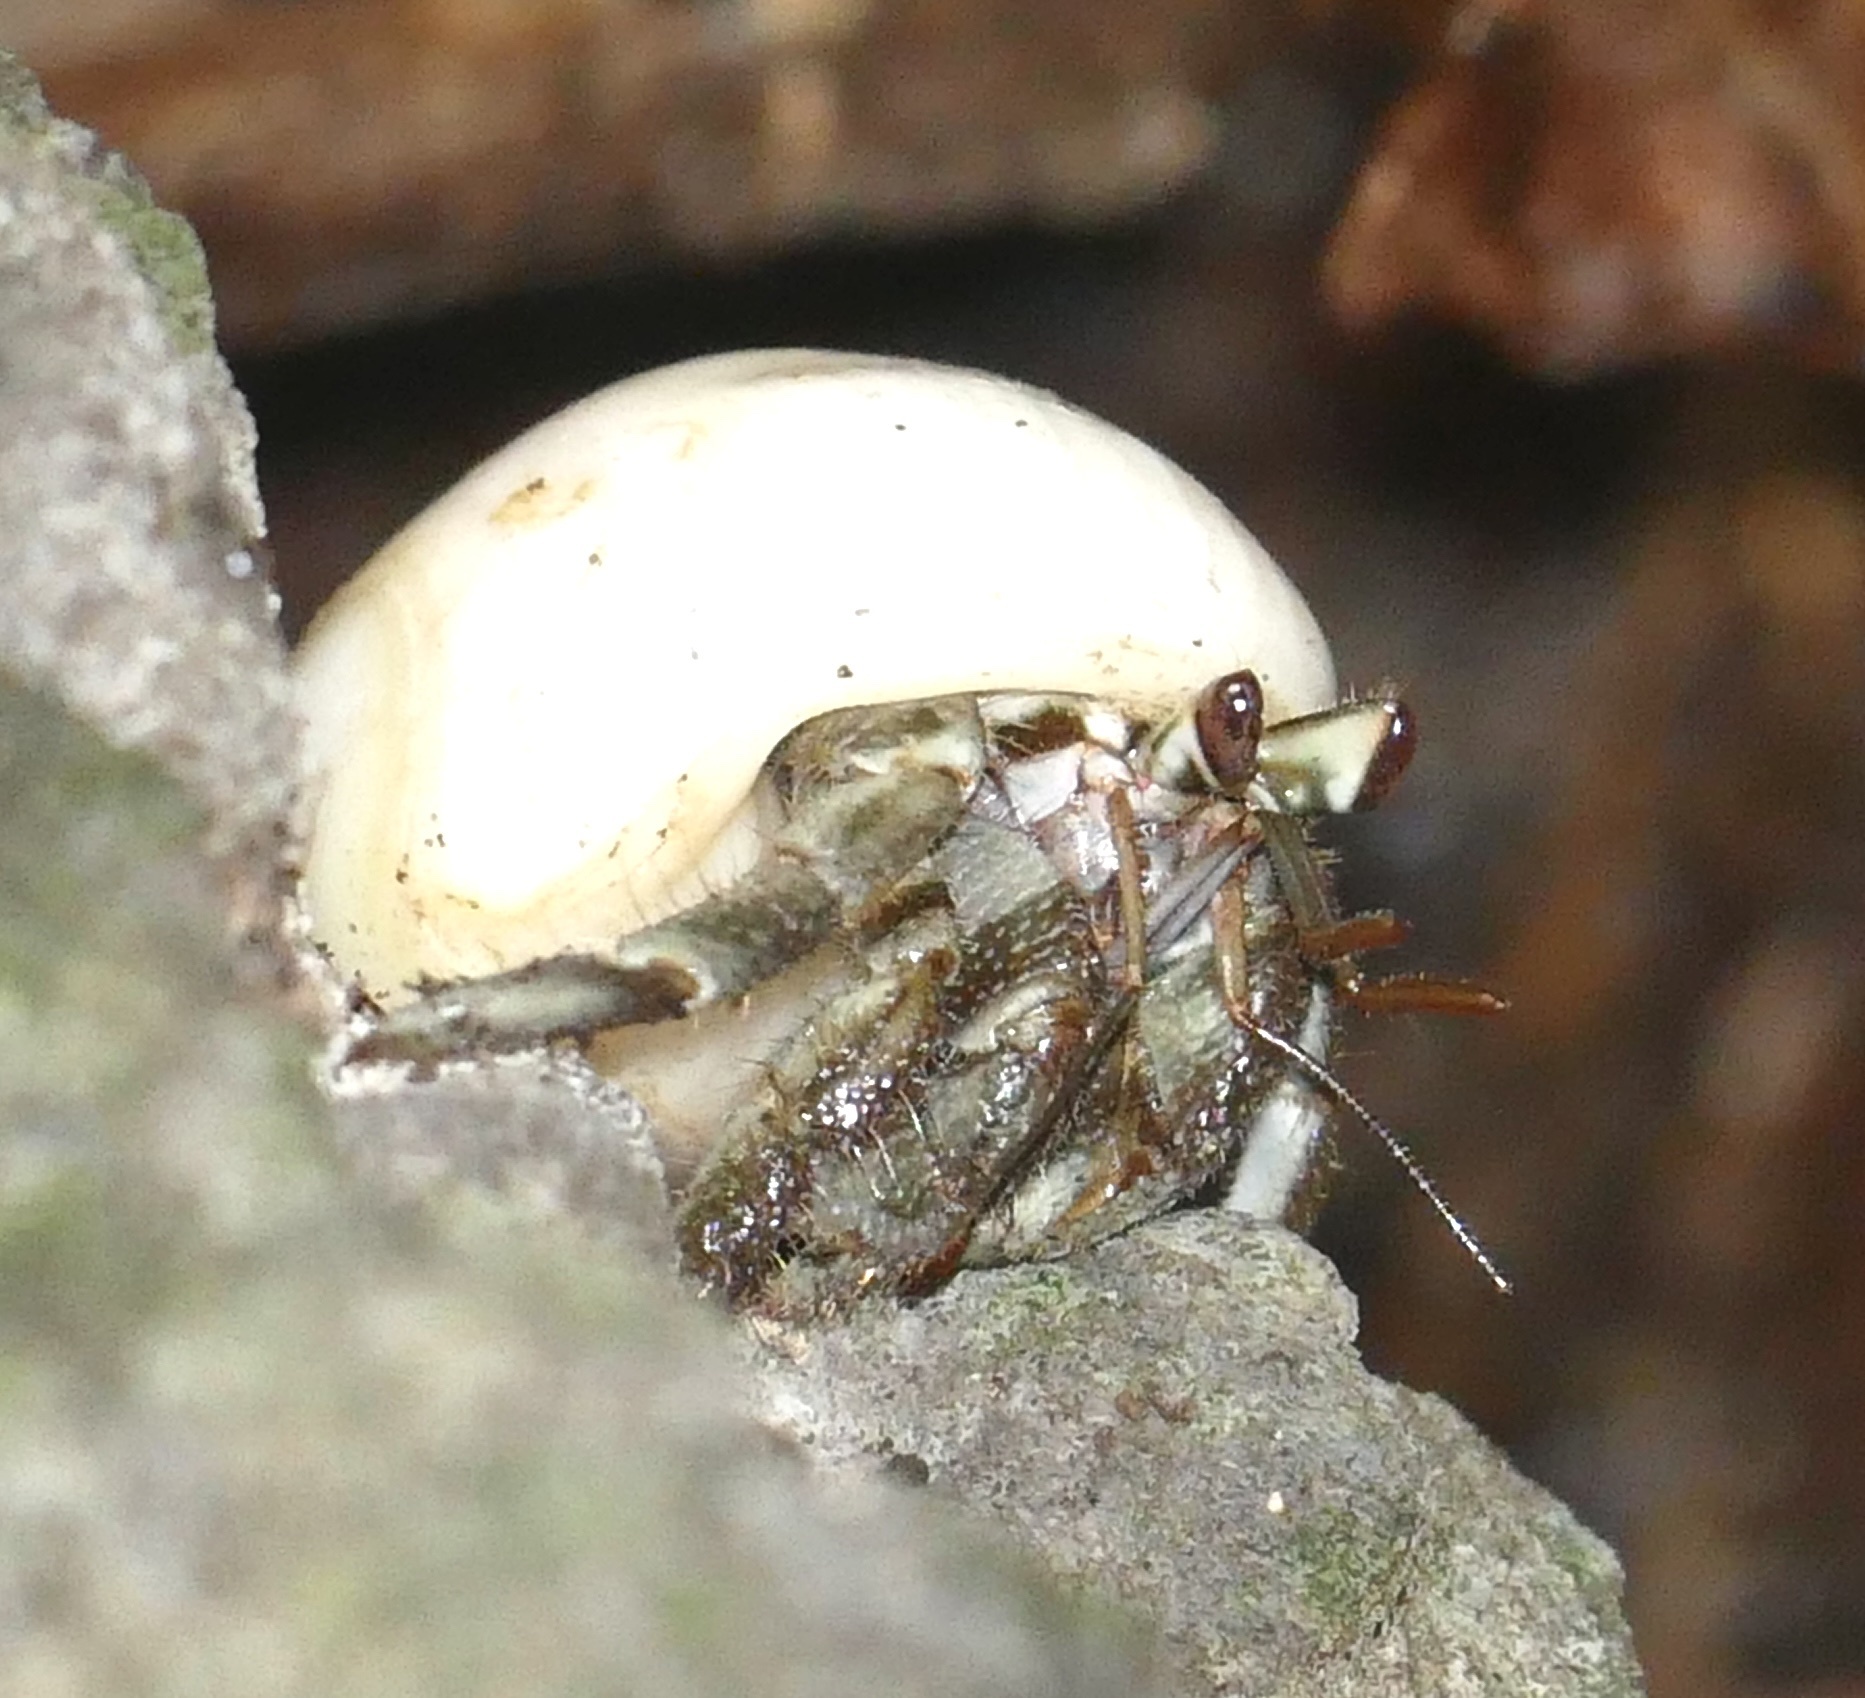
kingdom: Animalia
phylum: Arthropoda
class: Malacostraca
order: Decapoda
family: Coenobitidae
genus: Coenobita
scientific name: Coenobita rugosus
